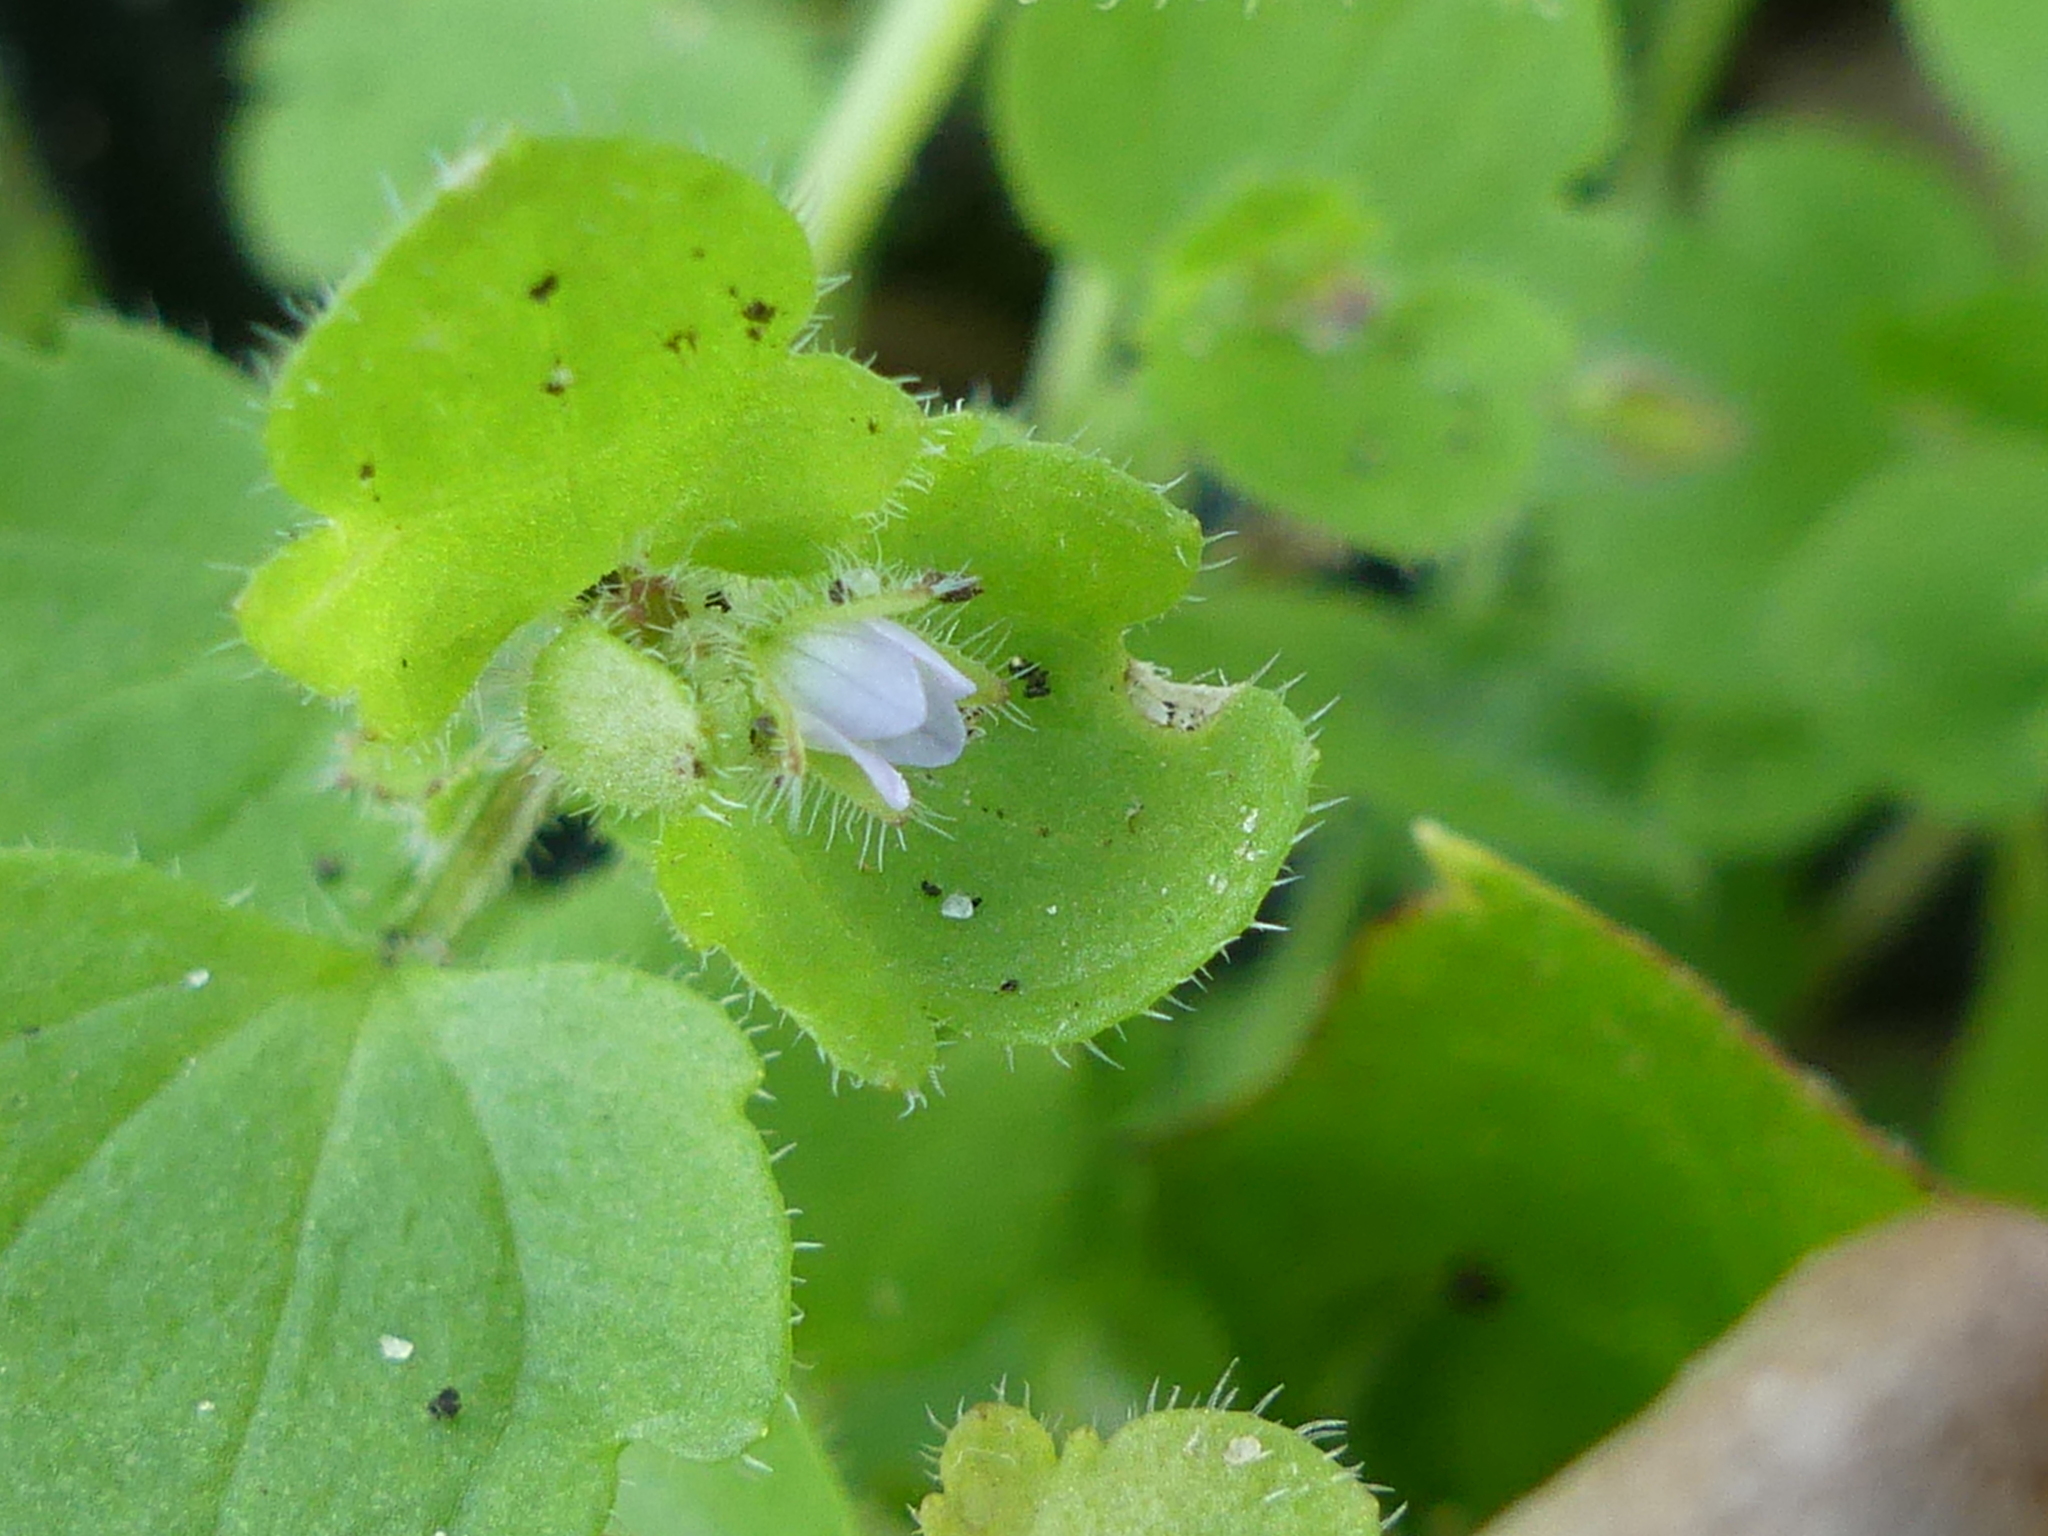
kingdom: Plantae
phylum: Tracheophyta
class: Magnoliopsida
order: Lamiales
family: Plantaginaceae
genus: Veronica
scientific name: Veronica sublobata
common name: False ivy-leaved speedwell
